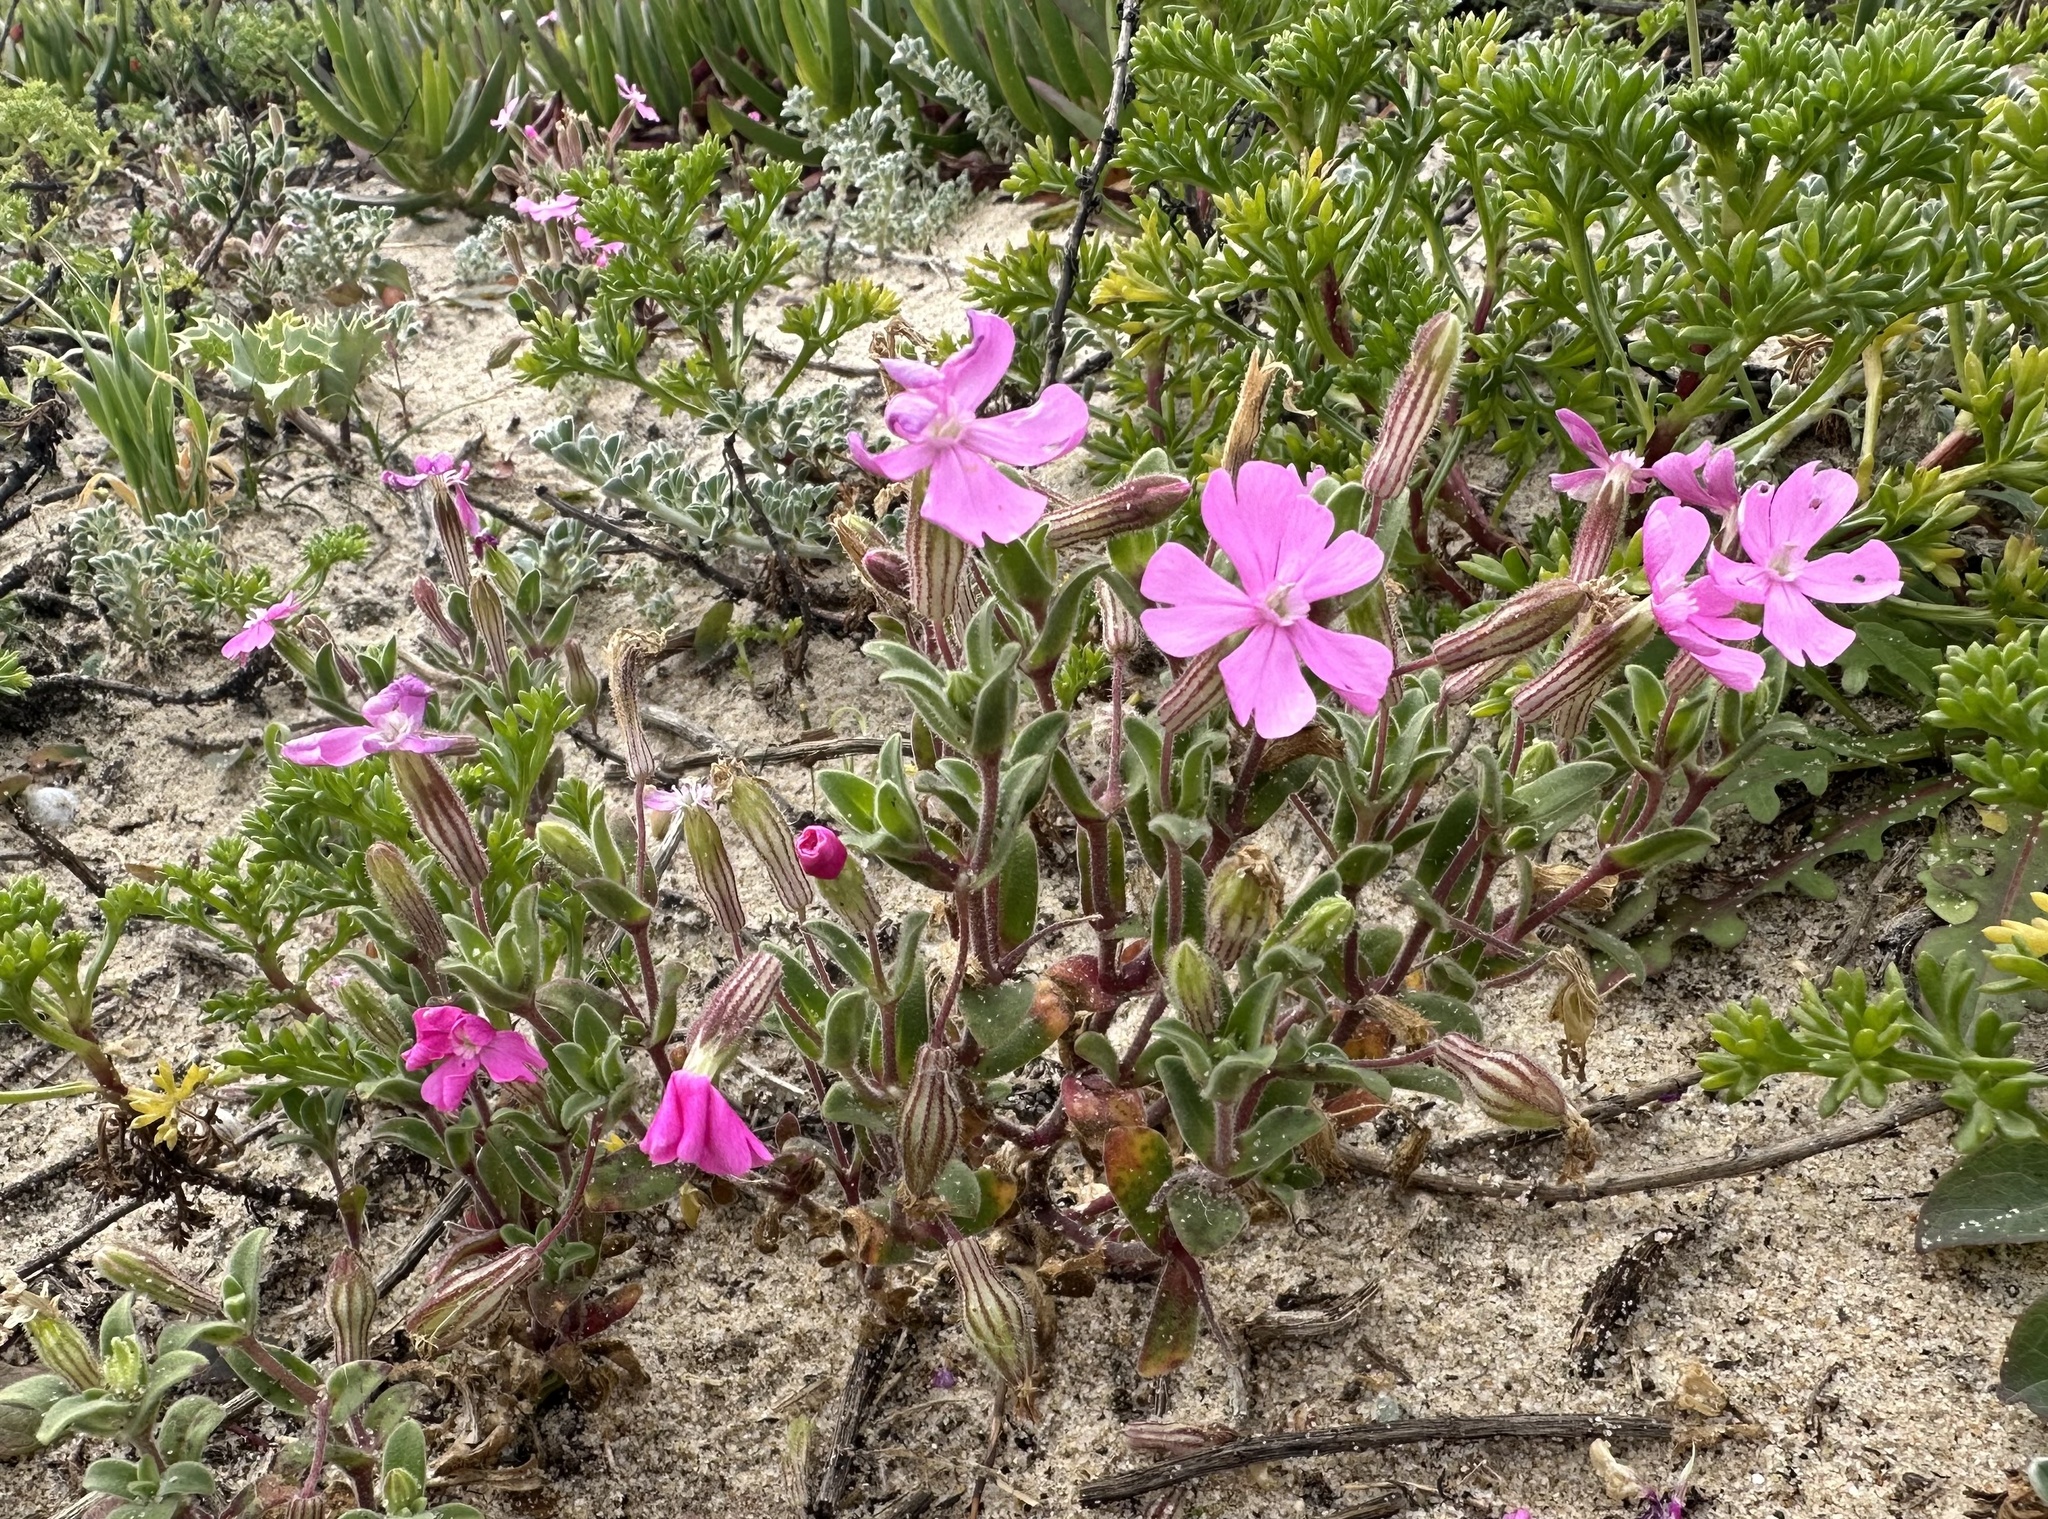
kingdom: Plantae
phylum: Tracheophyta
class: Magnoliopsida
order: Caryophyllales
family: Caryophyllaceae
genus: Silene
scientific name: Silene littorea
